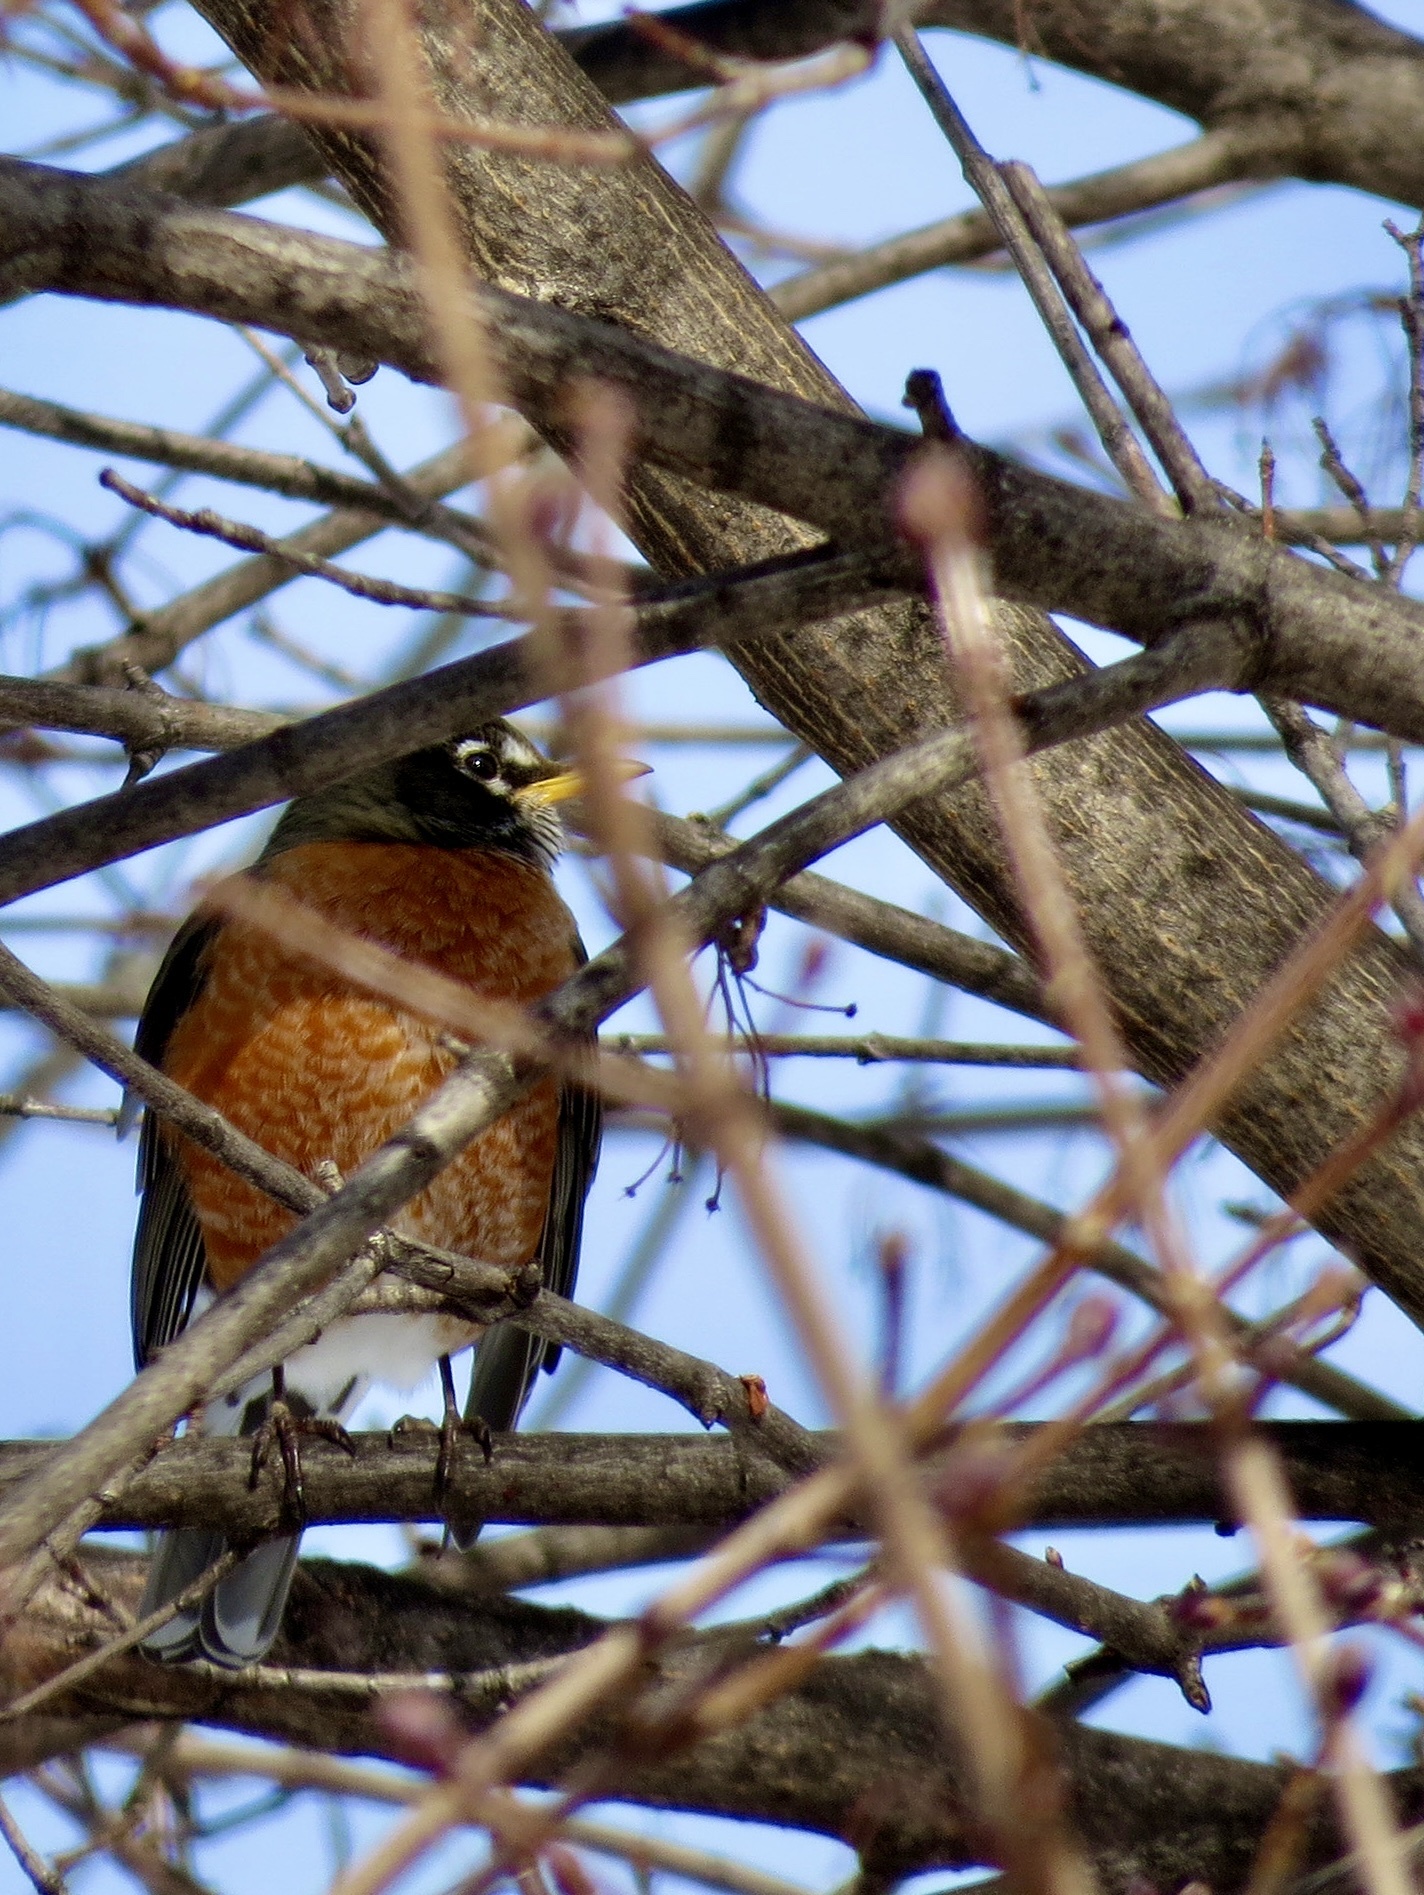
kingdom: Animalia
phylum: Chordata
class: Aves
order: Passeriformes
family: Turdidae
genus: Turdus
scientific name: Turdus migratorius
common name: American robin
